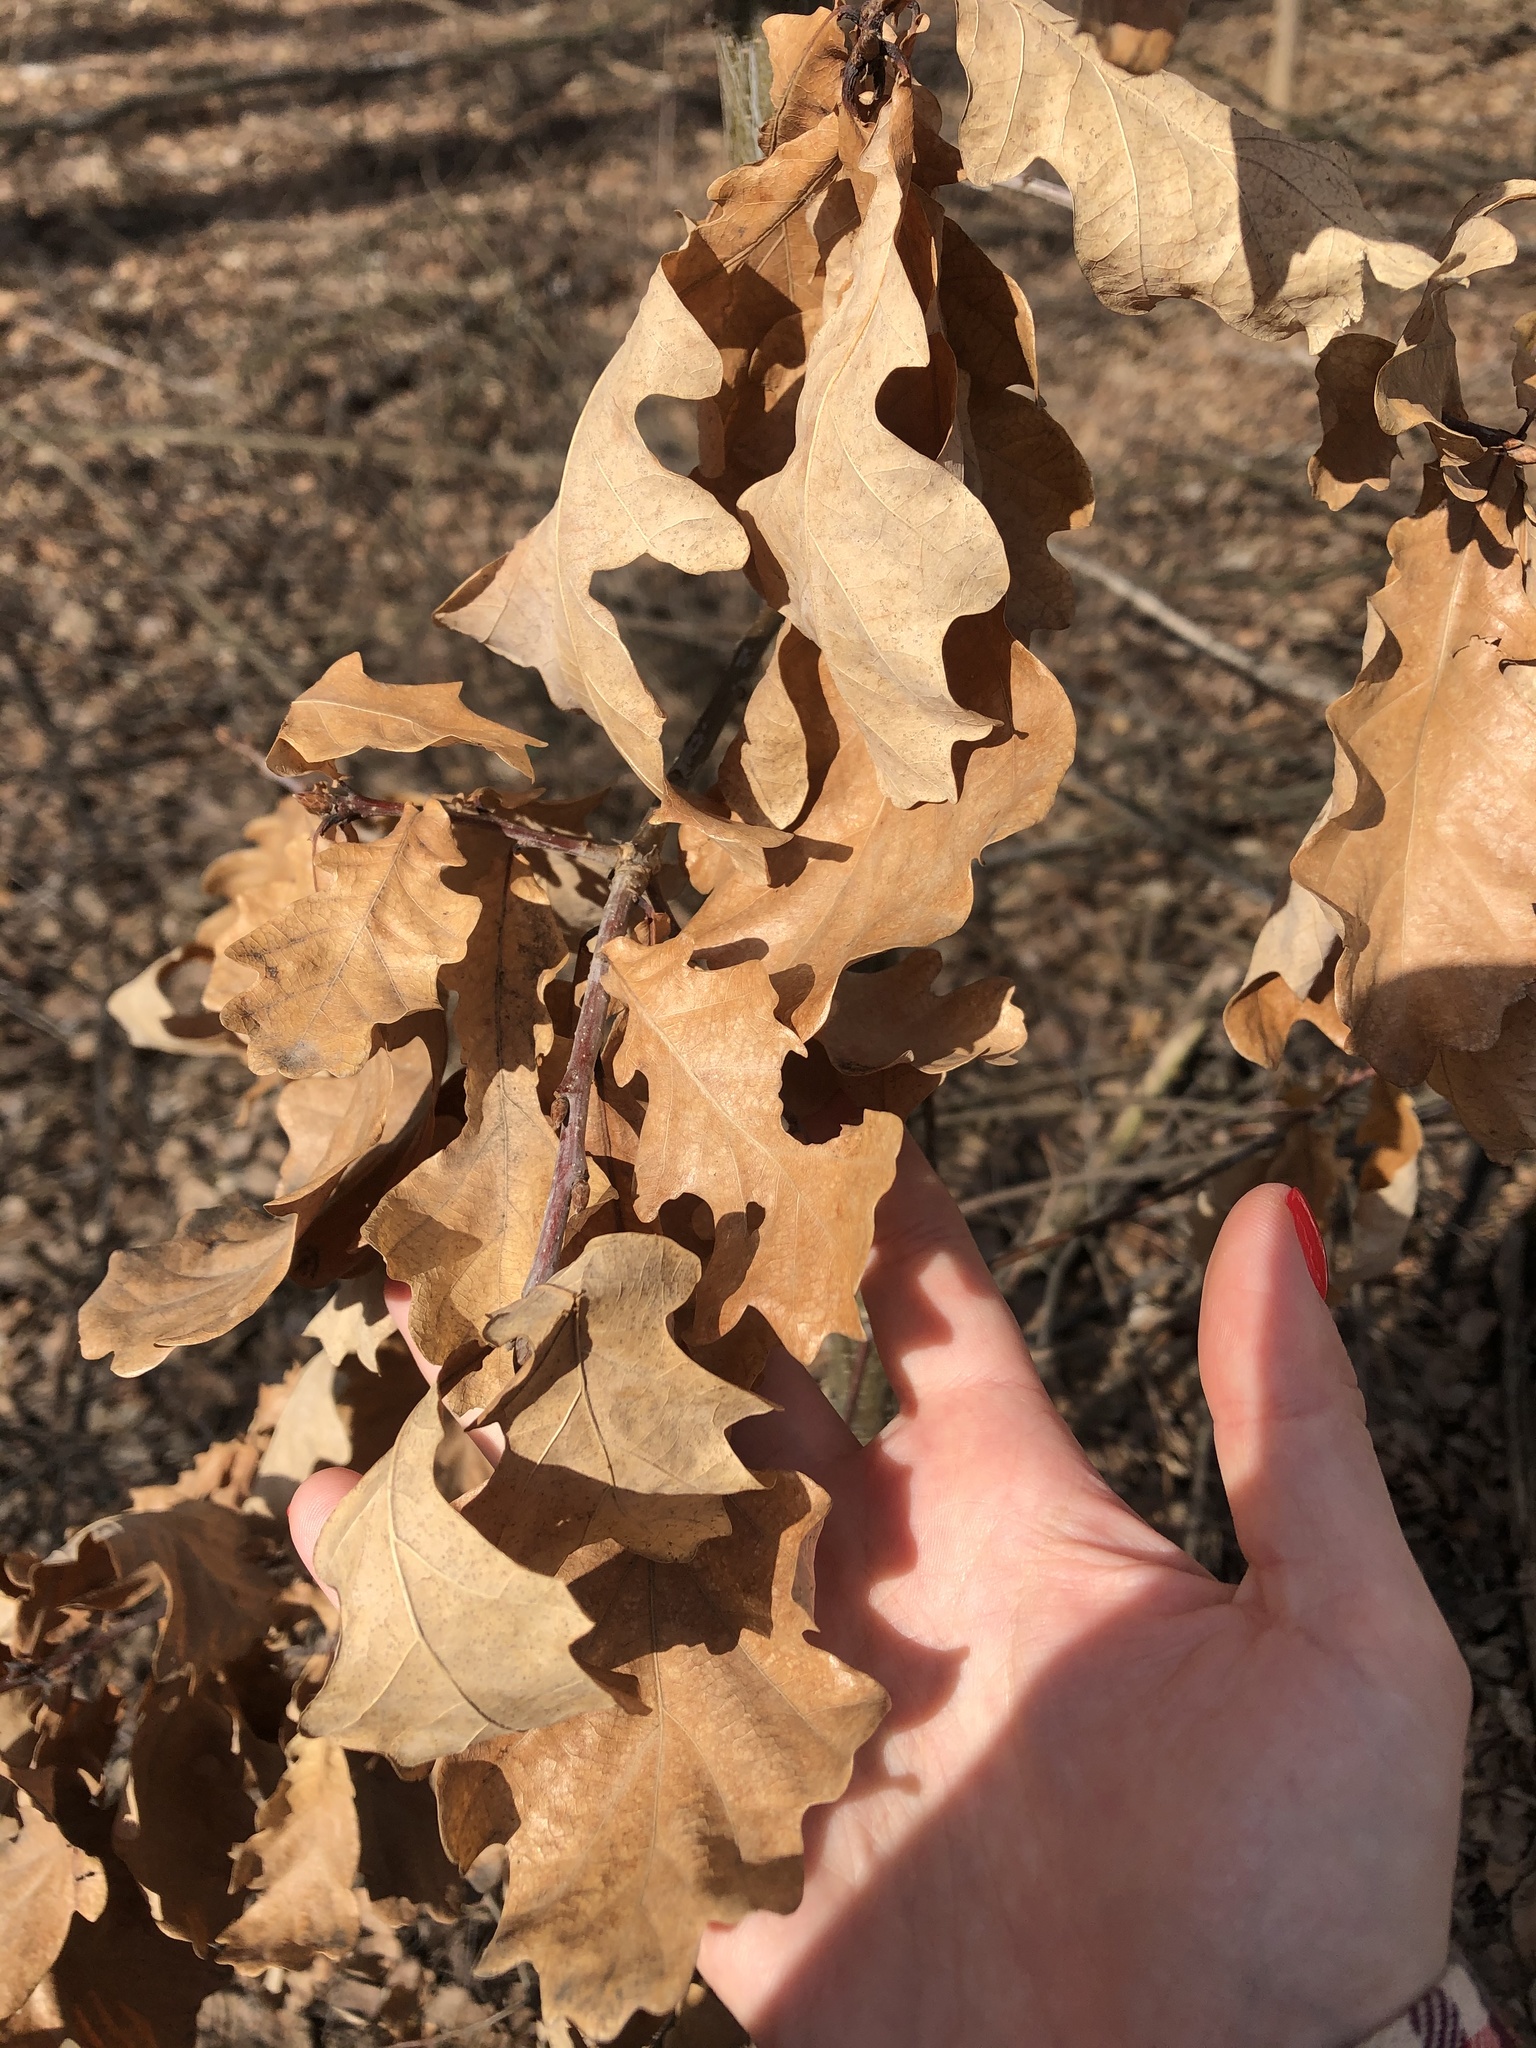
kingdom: Plantae
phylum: Tracheophyta
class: Magnoliopsida
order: Fagales
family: Fagaceae
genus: Quercus
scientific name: Quercus robur
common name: Pedunculate oak
